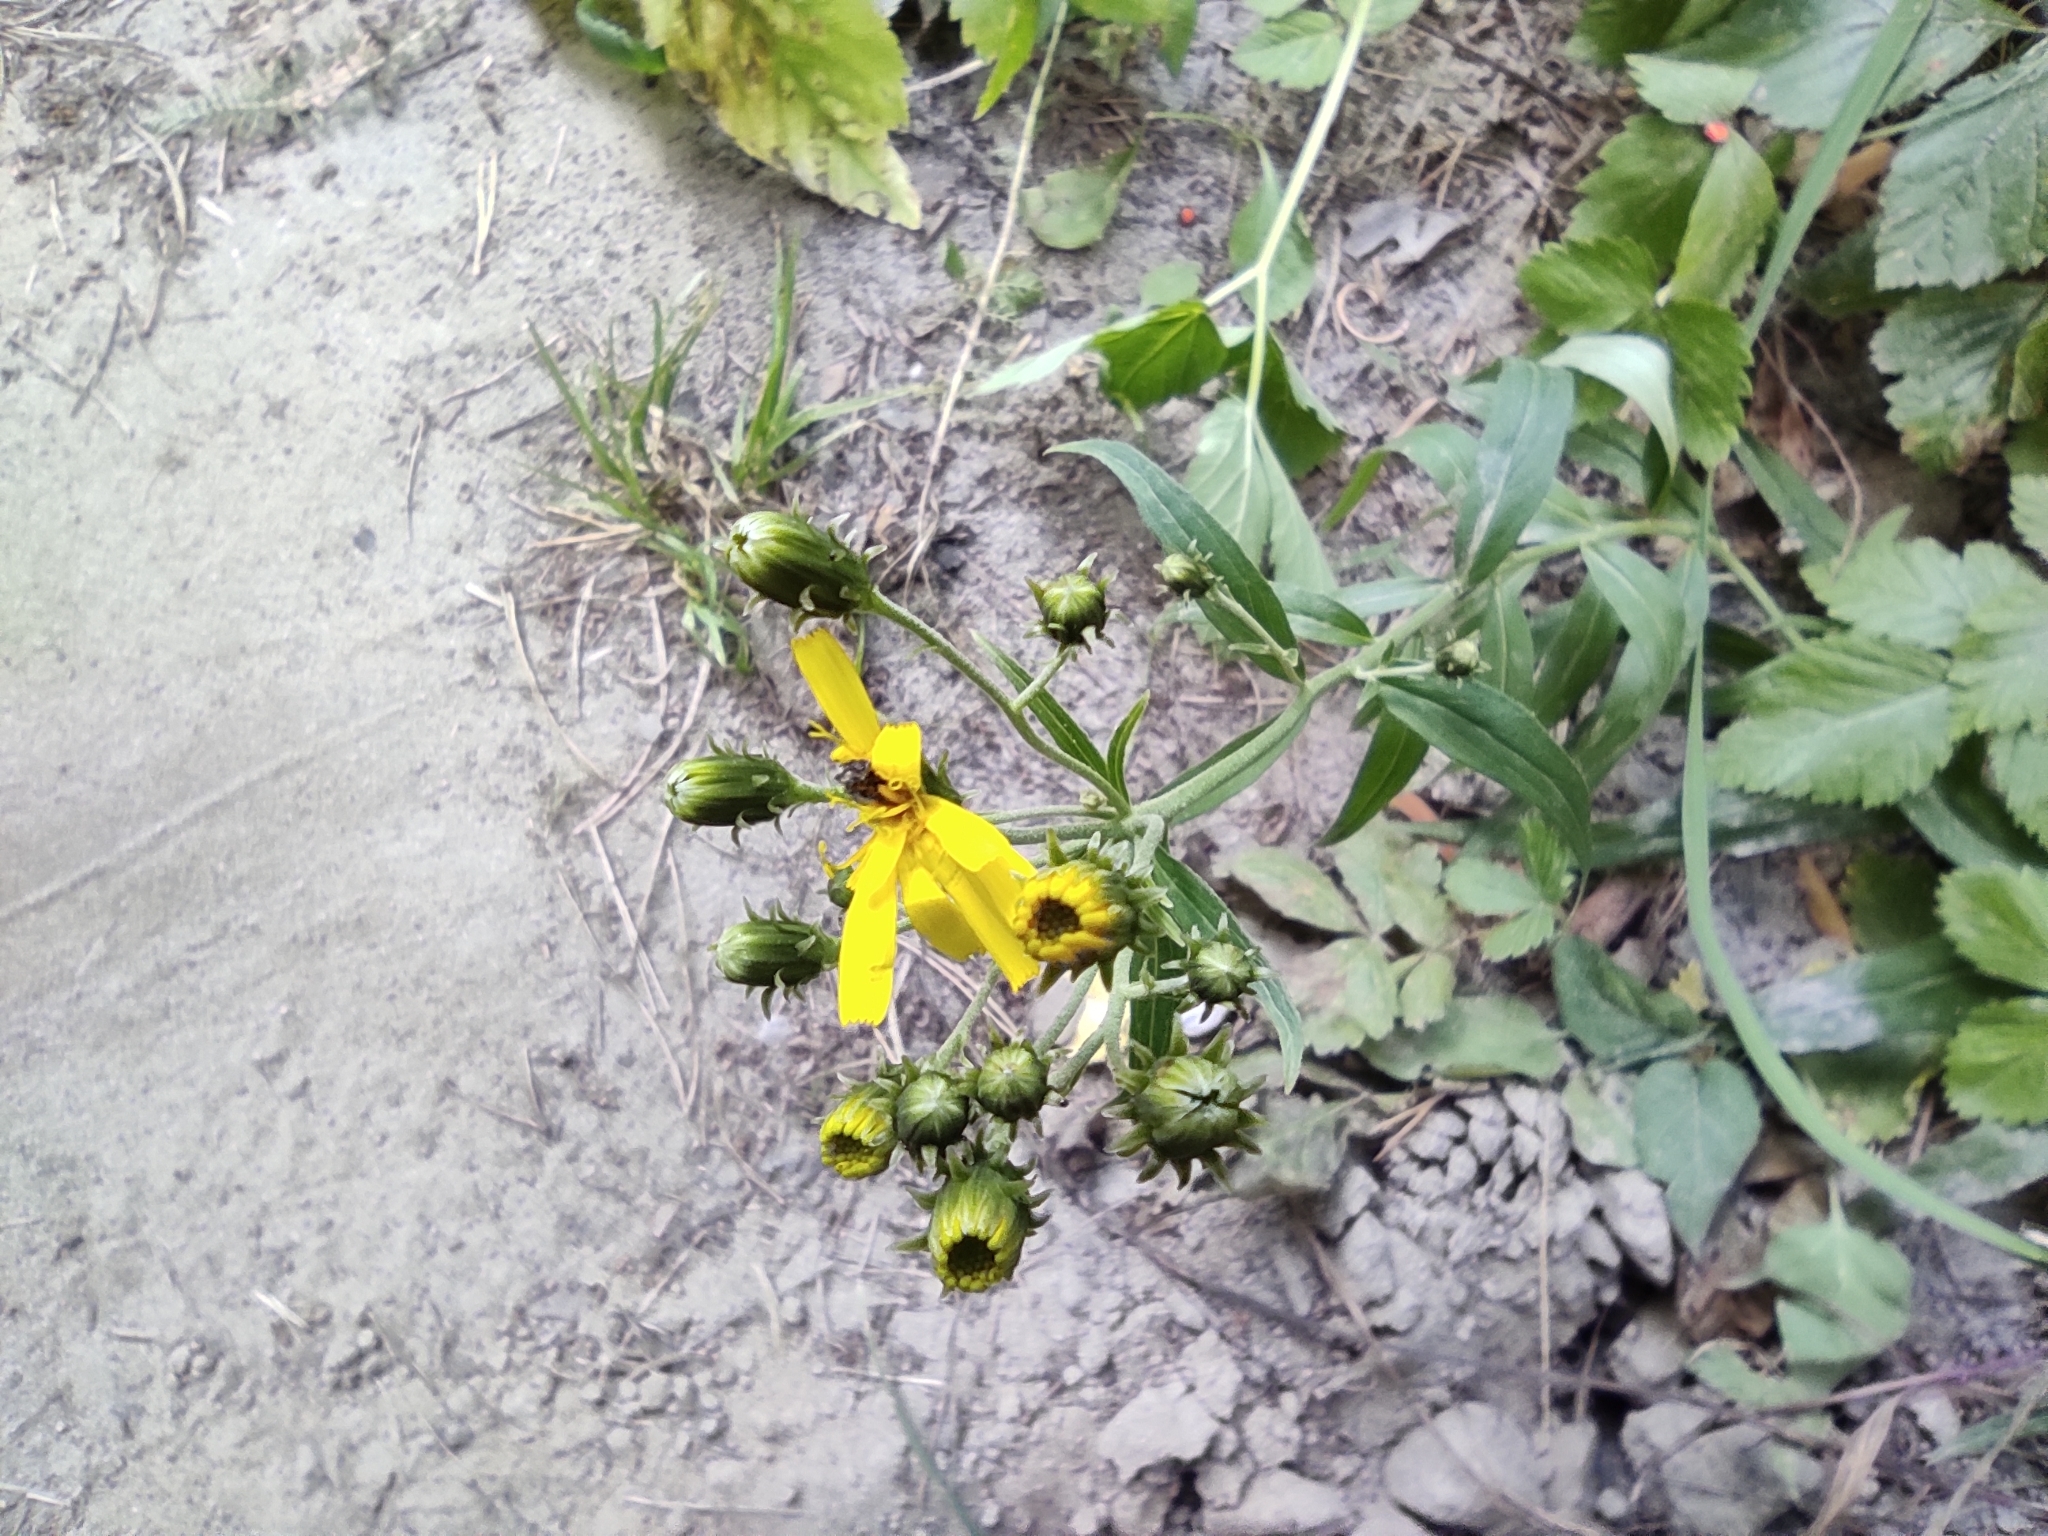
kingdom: Plantae
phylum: Tracheophyta
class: Magnoliopsida
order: Asterales
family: Asteraceae
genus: Hieracium
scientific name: Hieracium umbellatum
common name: Northern hawkweed
